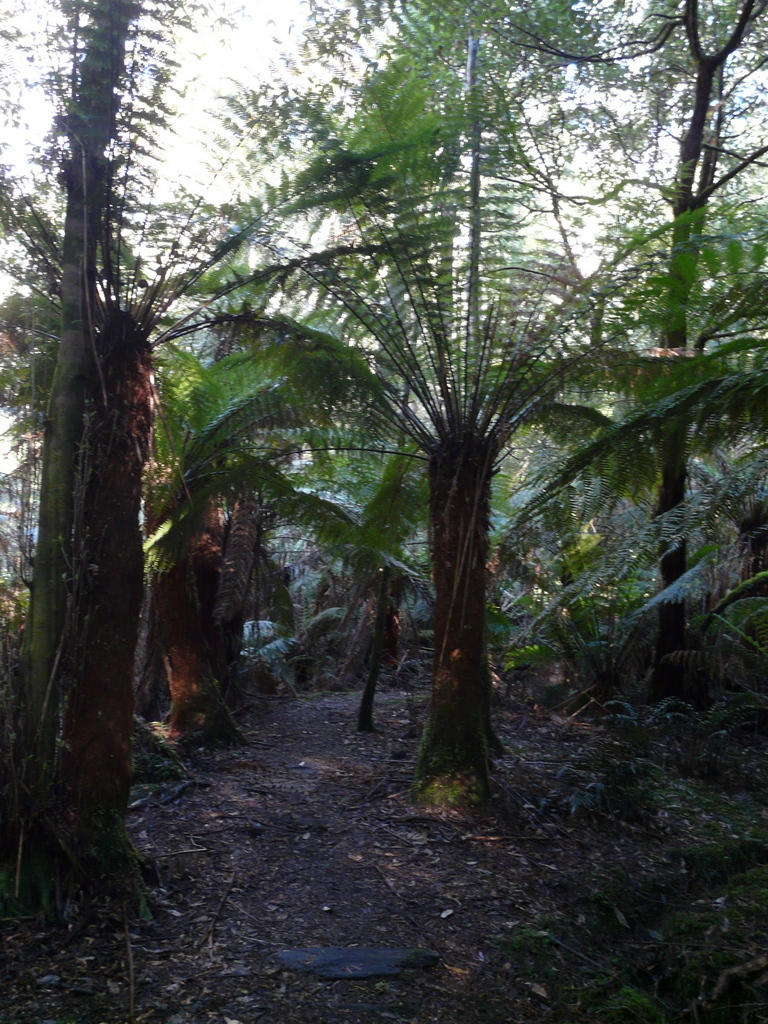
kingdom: Plantae
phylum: Tracheophyta
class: Polypodiopsida
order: Cyatheales
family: Dicksoniaceae
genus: Dicksonia
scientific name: Dicksonia antarctica
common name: Australian treefern
